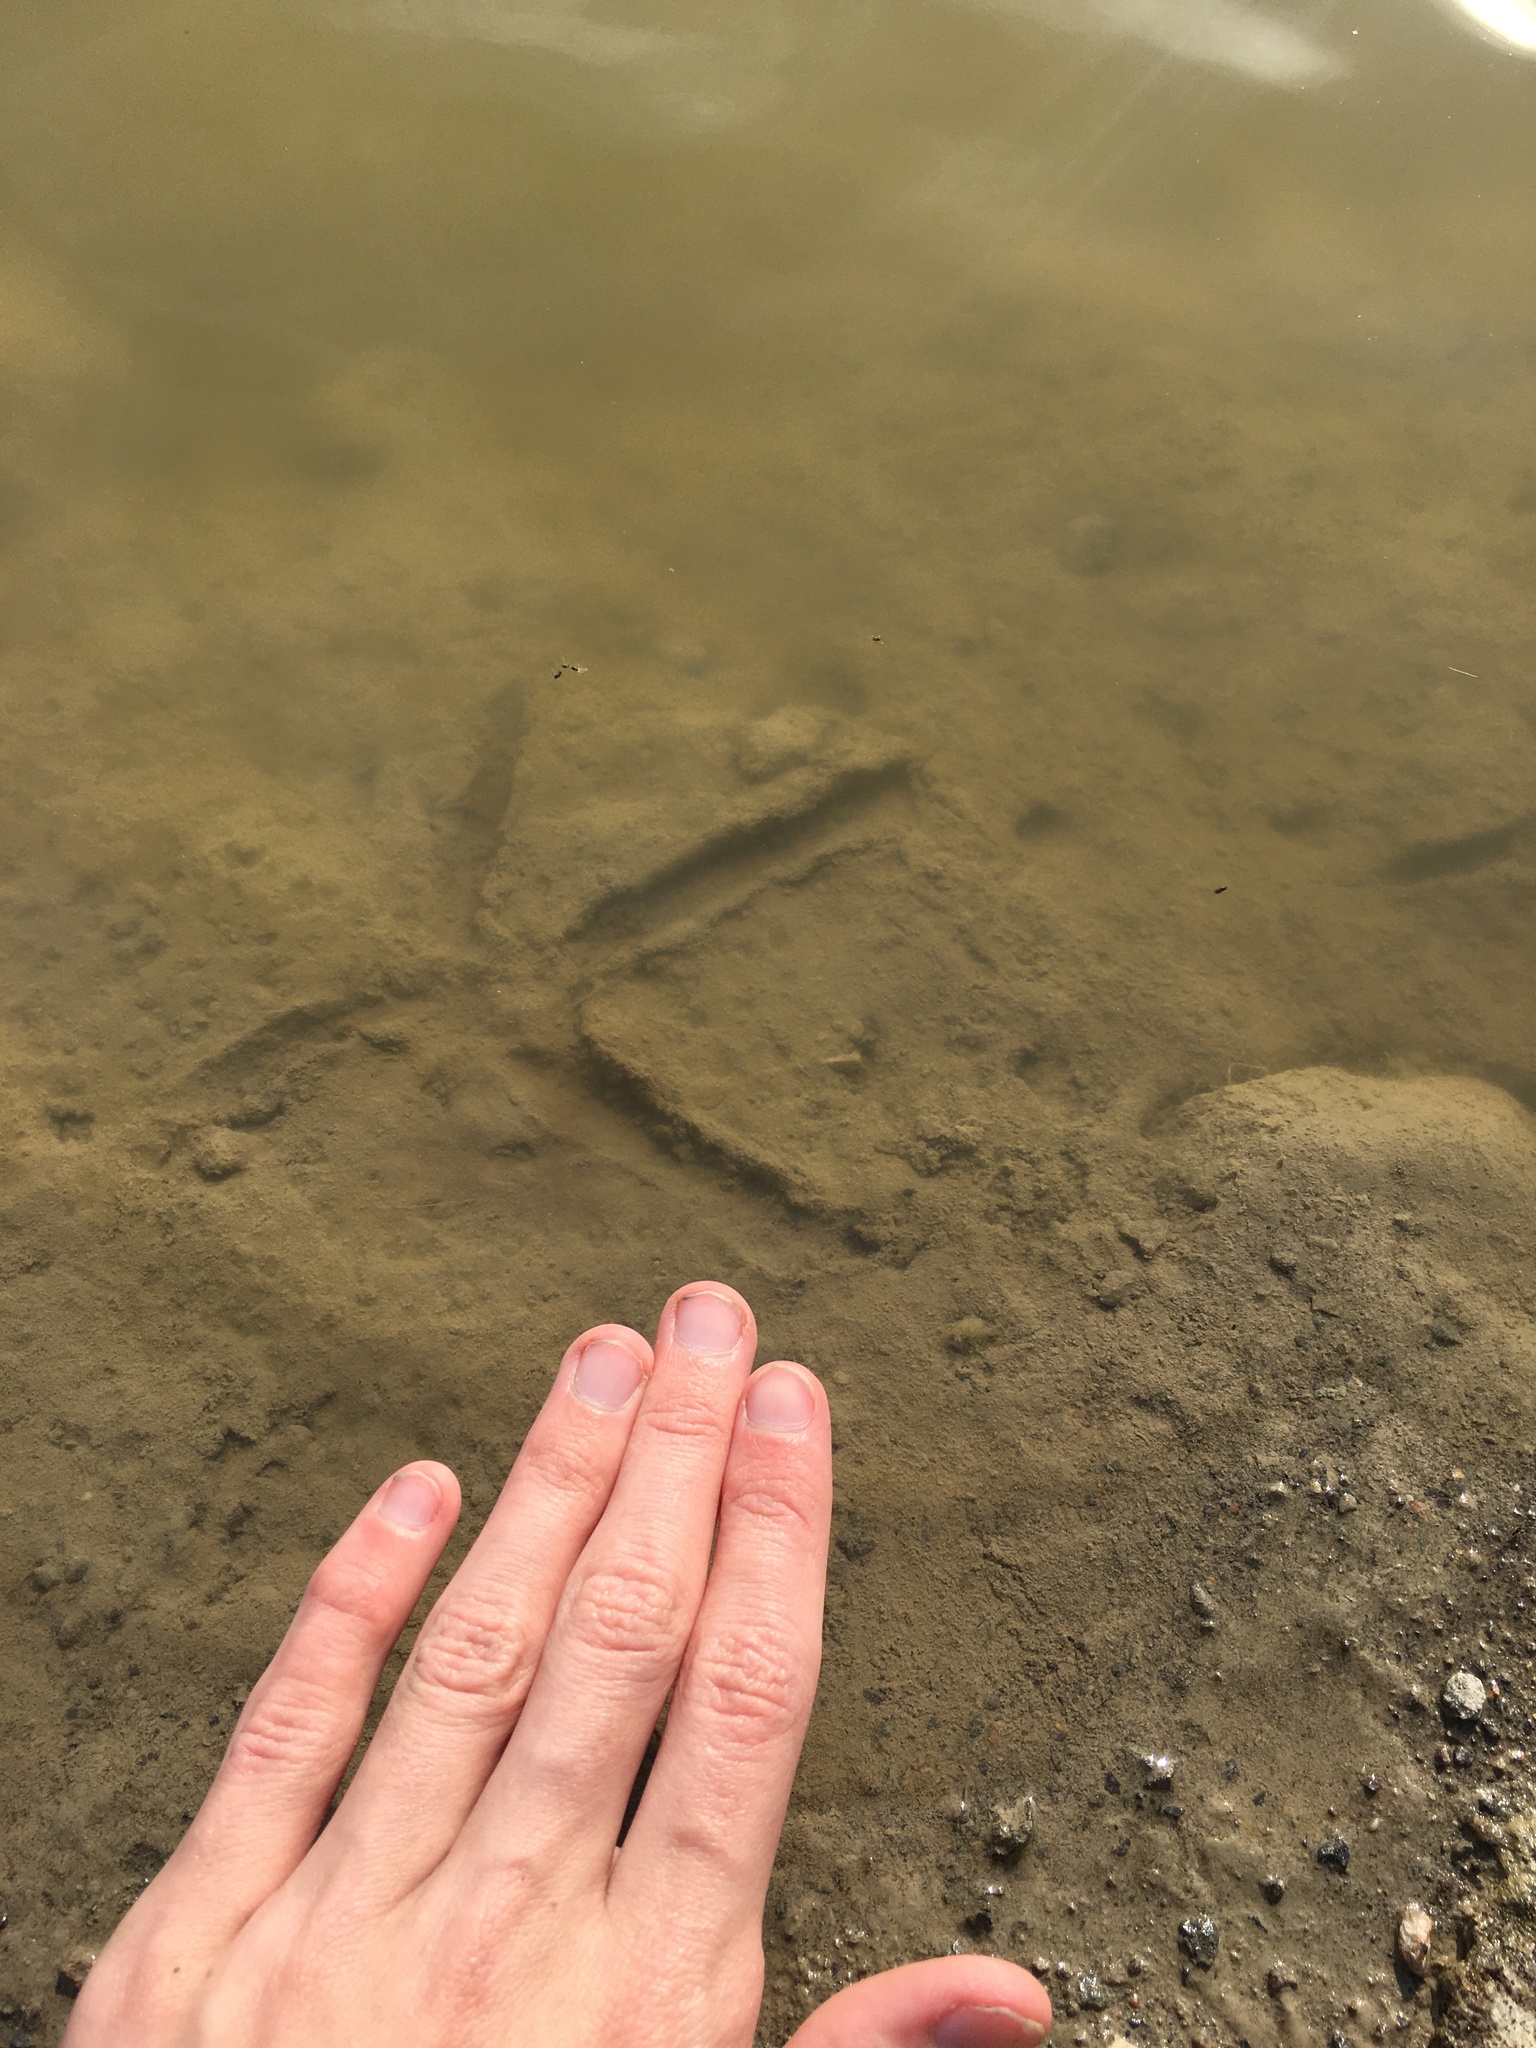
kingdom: Animalia
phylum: Chordata
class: Aves
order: Pelecaniformes
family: Ardeidae
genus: Ardea
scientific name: Ardea herodias
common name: Great blue heron
